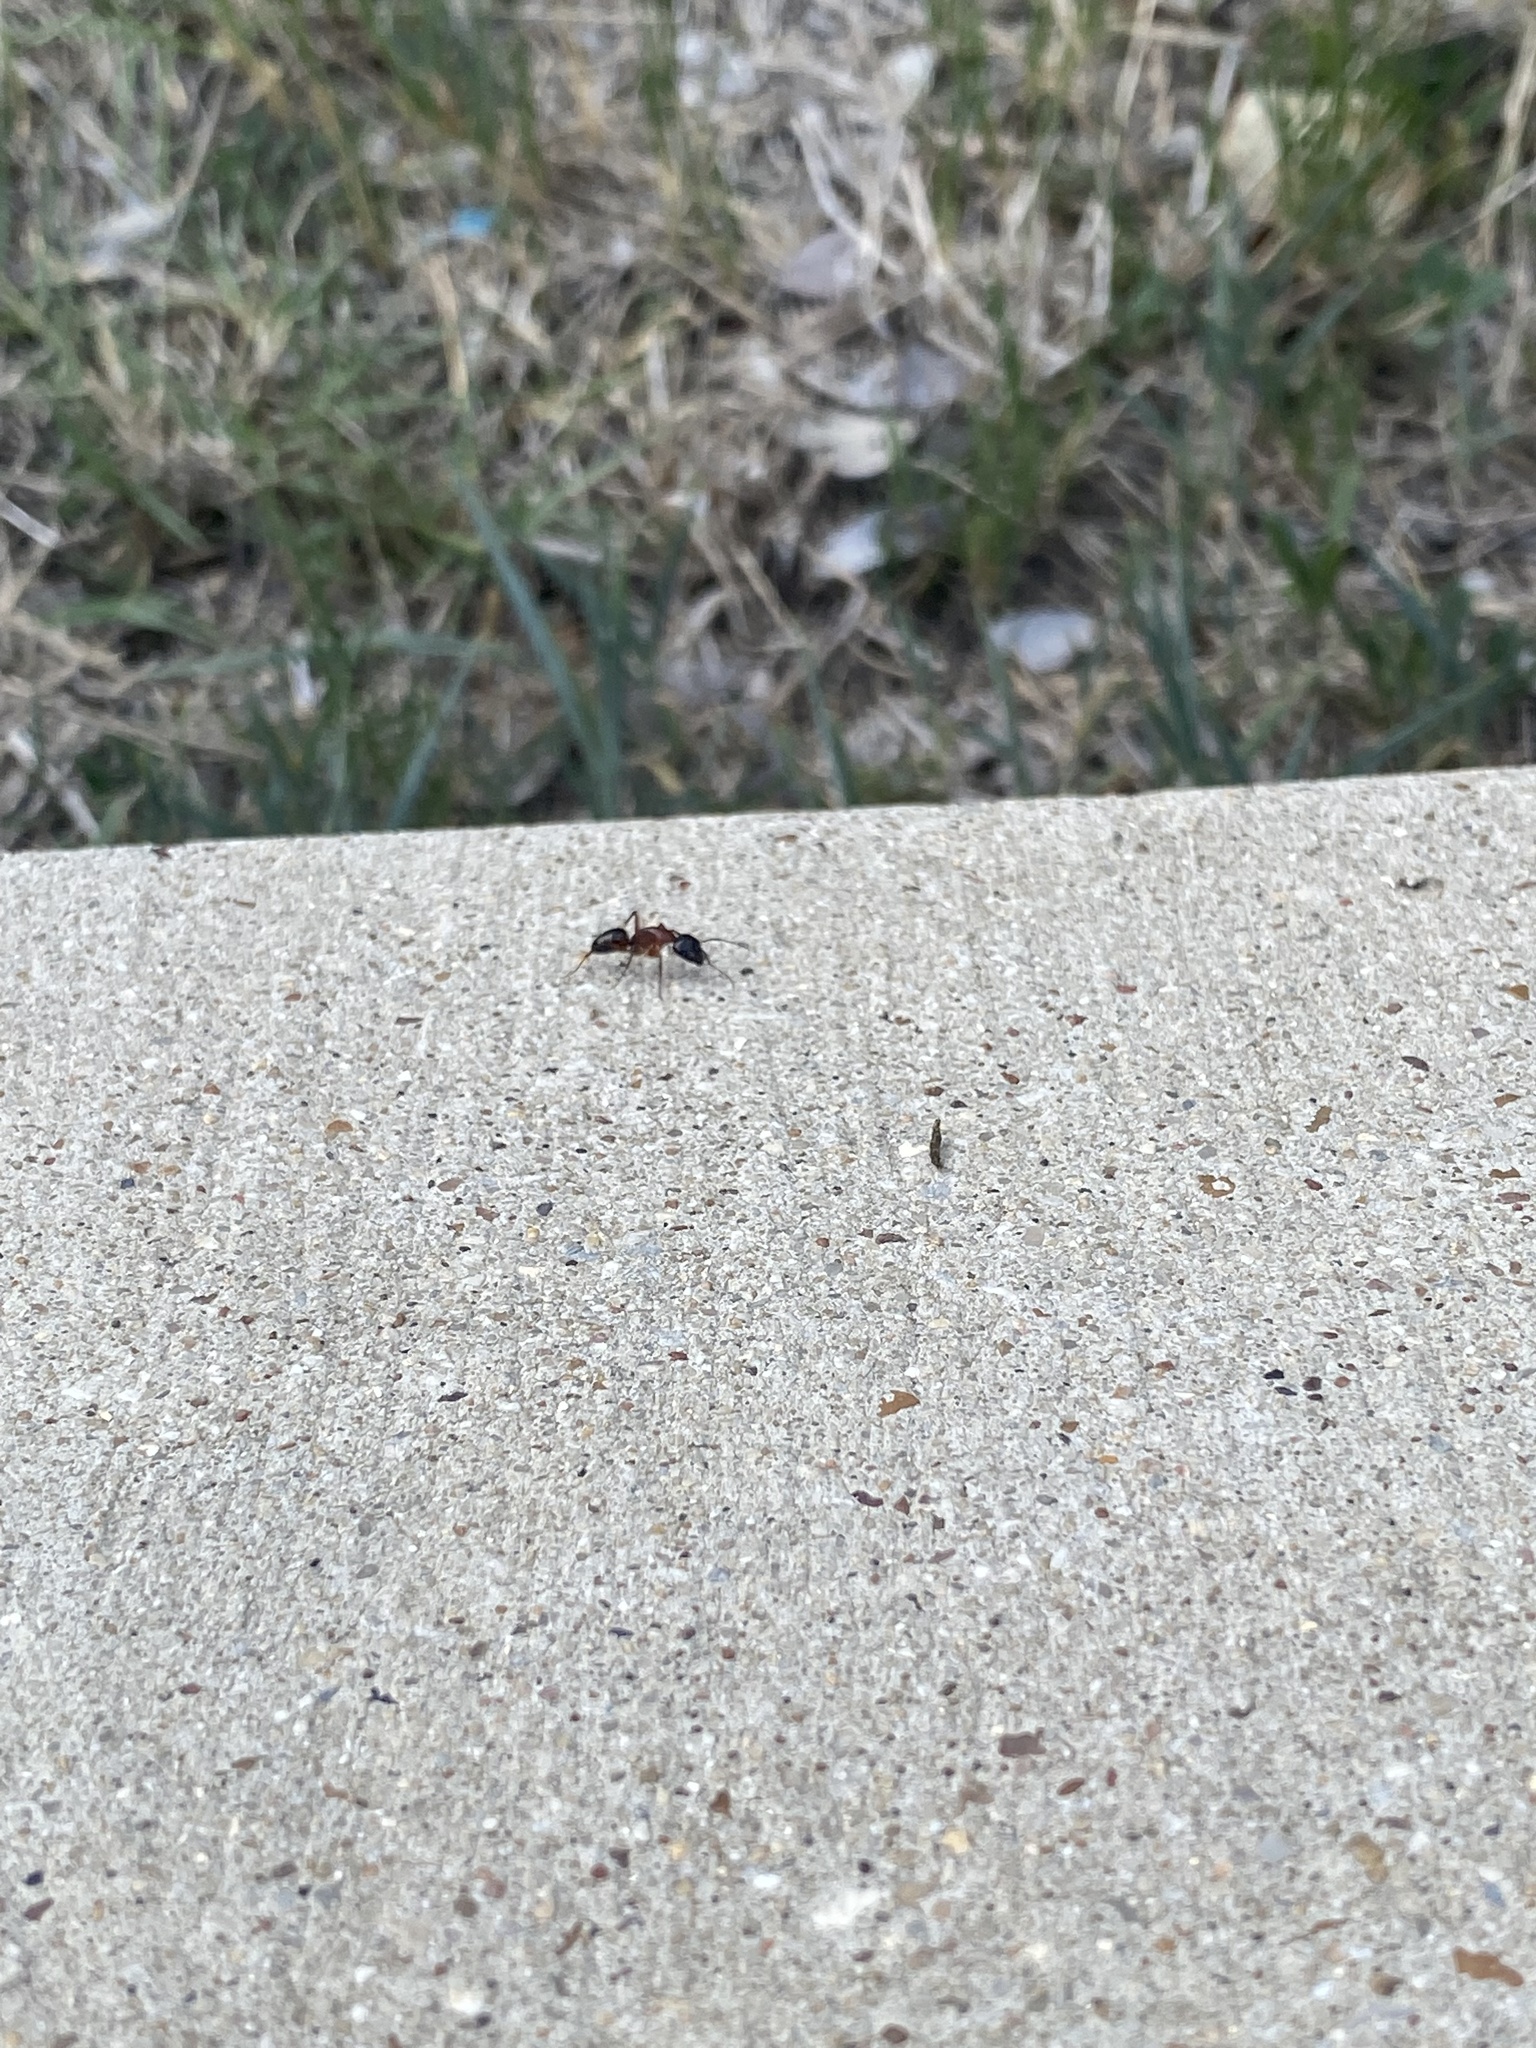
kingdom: Animalia
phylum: Arthropoda
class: Insecta
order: Hymenoptera
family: Formicidae
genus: Camponotus
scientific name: Camponotus texanus
